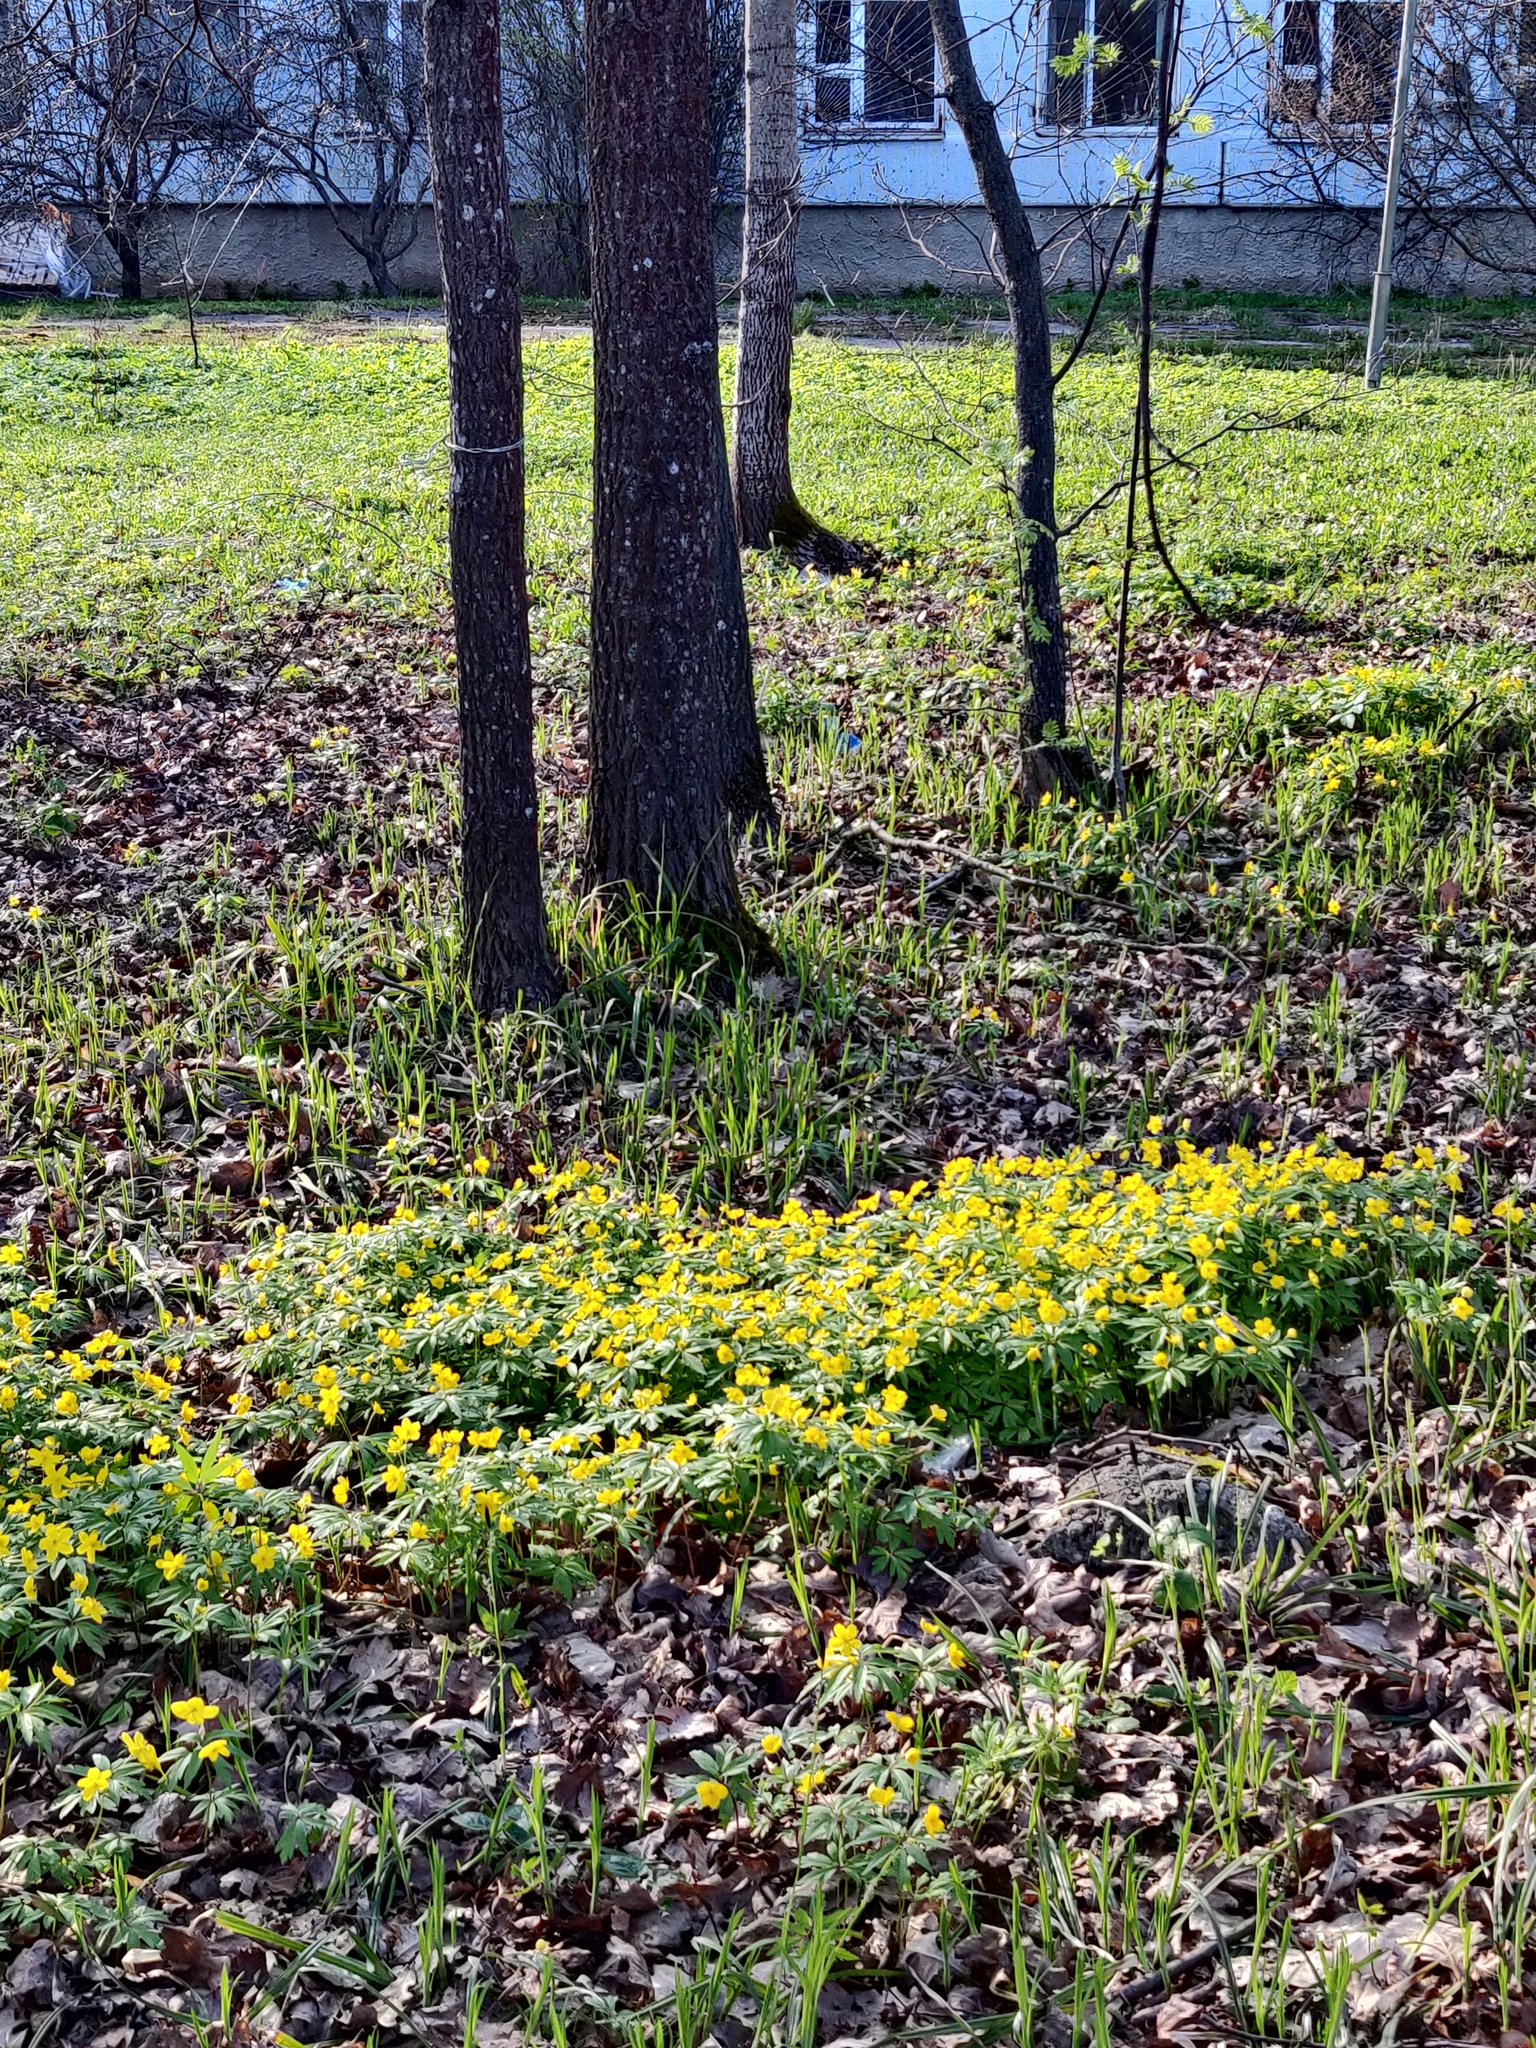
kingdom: Plantae
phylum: Tracheophyta
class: Magnoliopsida
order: Ranunculales
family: Ranunculaceae
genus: Anemone
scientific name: Anemone ranunculoides
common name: Yellow anemone
